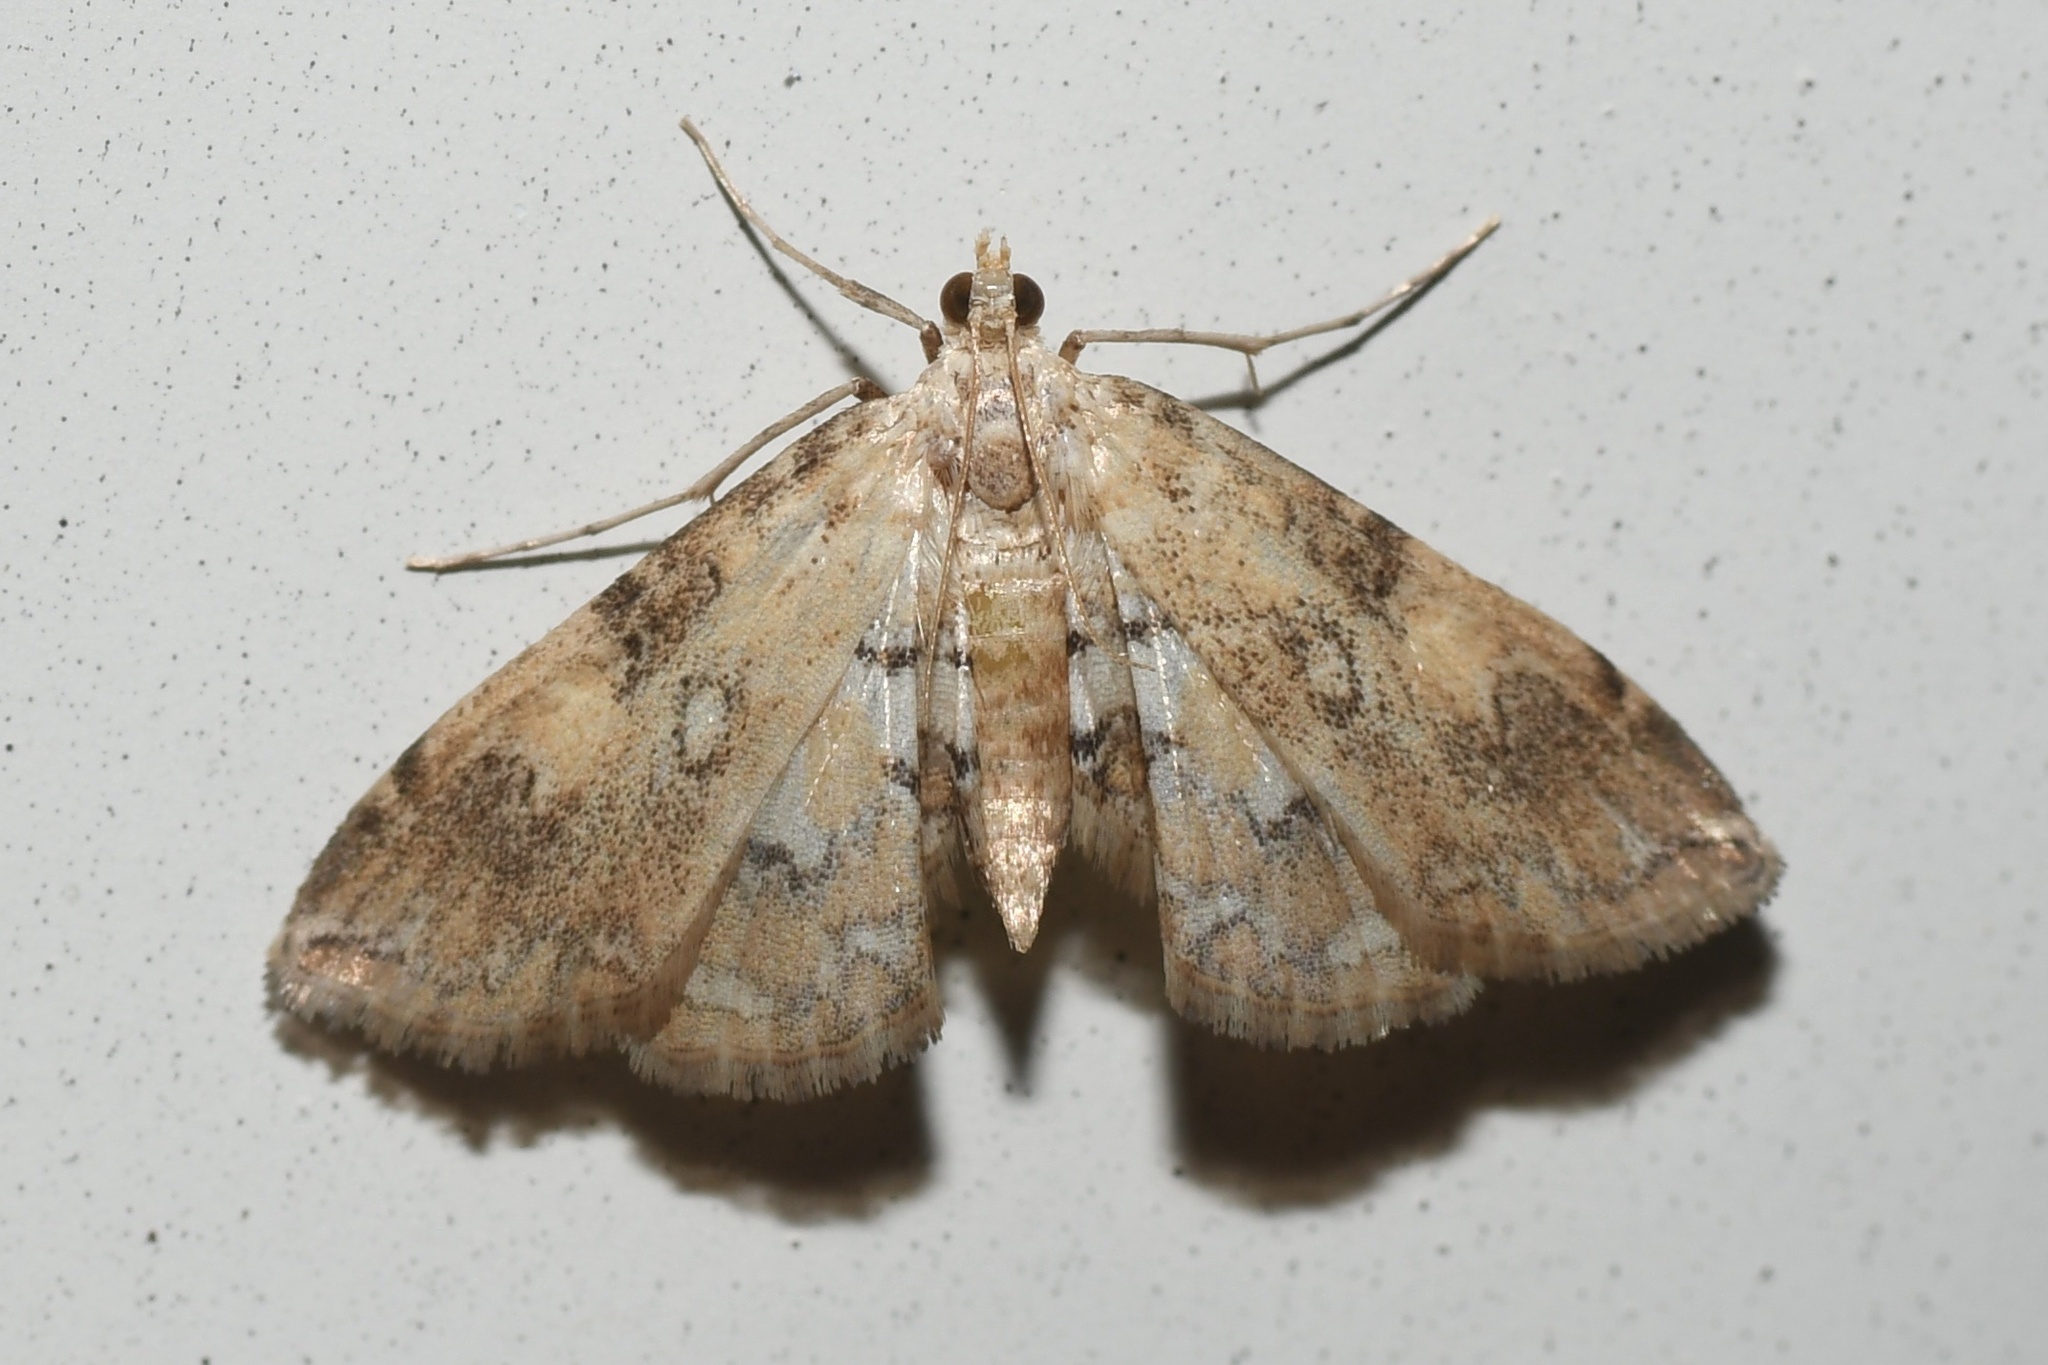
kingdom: Animalia
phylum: Arthropoda
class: Insecta
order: Lepidoptera
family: Crambidae
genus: Elophila
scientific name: Elophila faulalis
